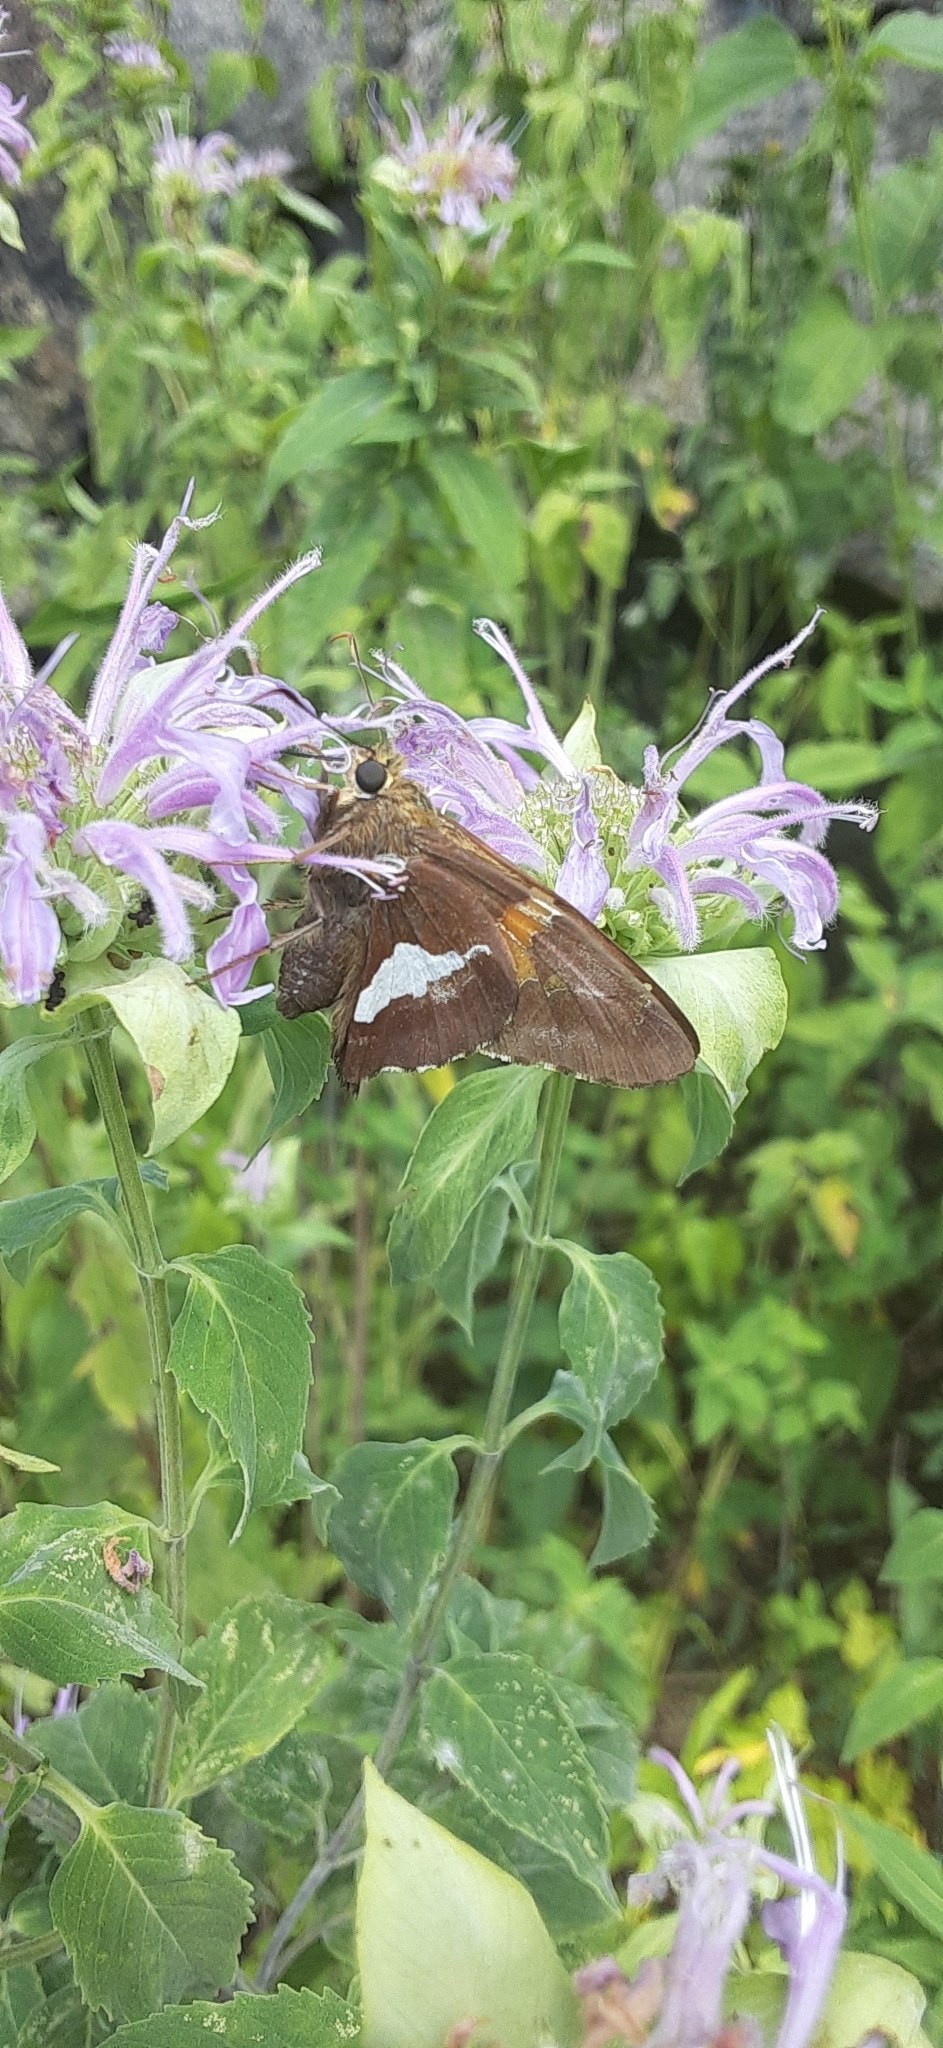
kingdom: Animalia
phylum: Arthropoda
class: Insecta
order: Lepidoptera
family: Hesperiidae
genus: Epargyreus
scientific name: Epargyreus clarus
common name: Silver-spotted skipper
